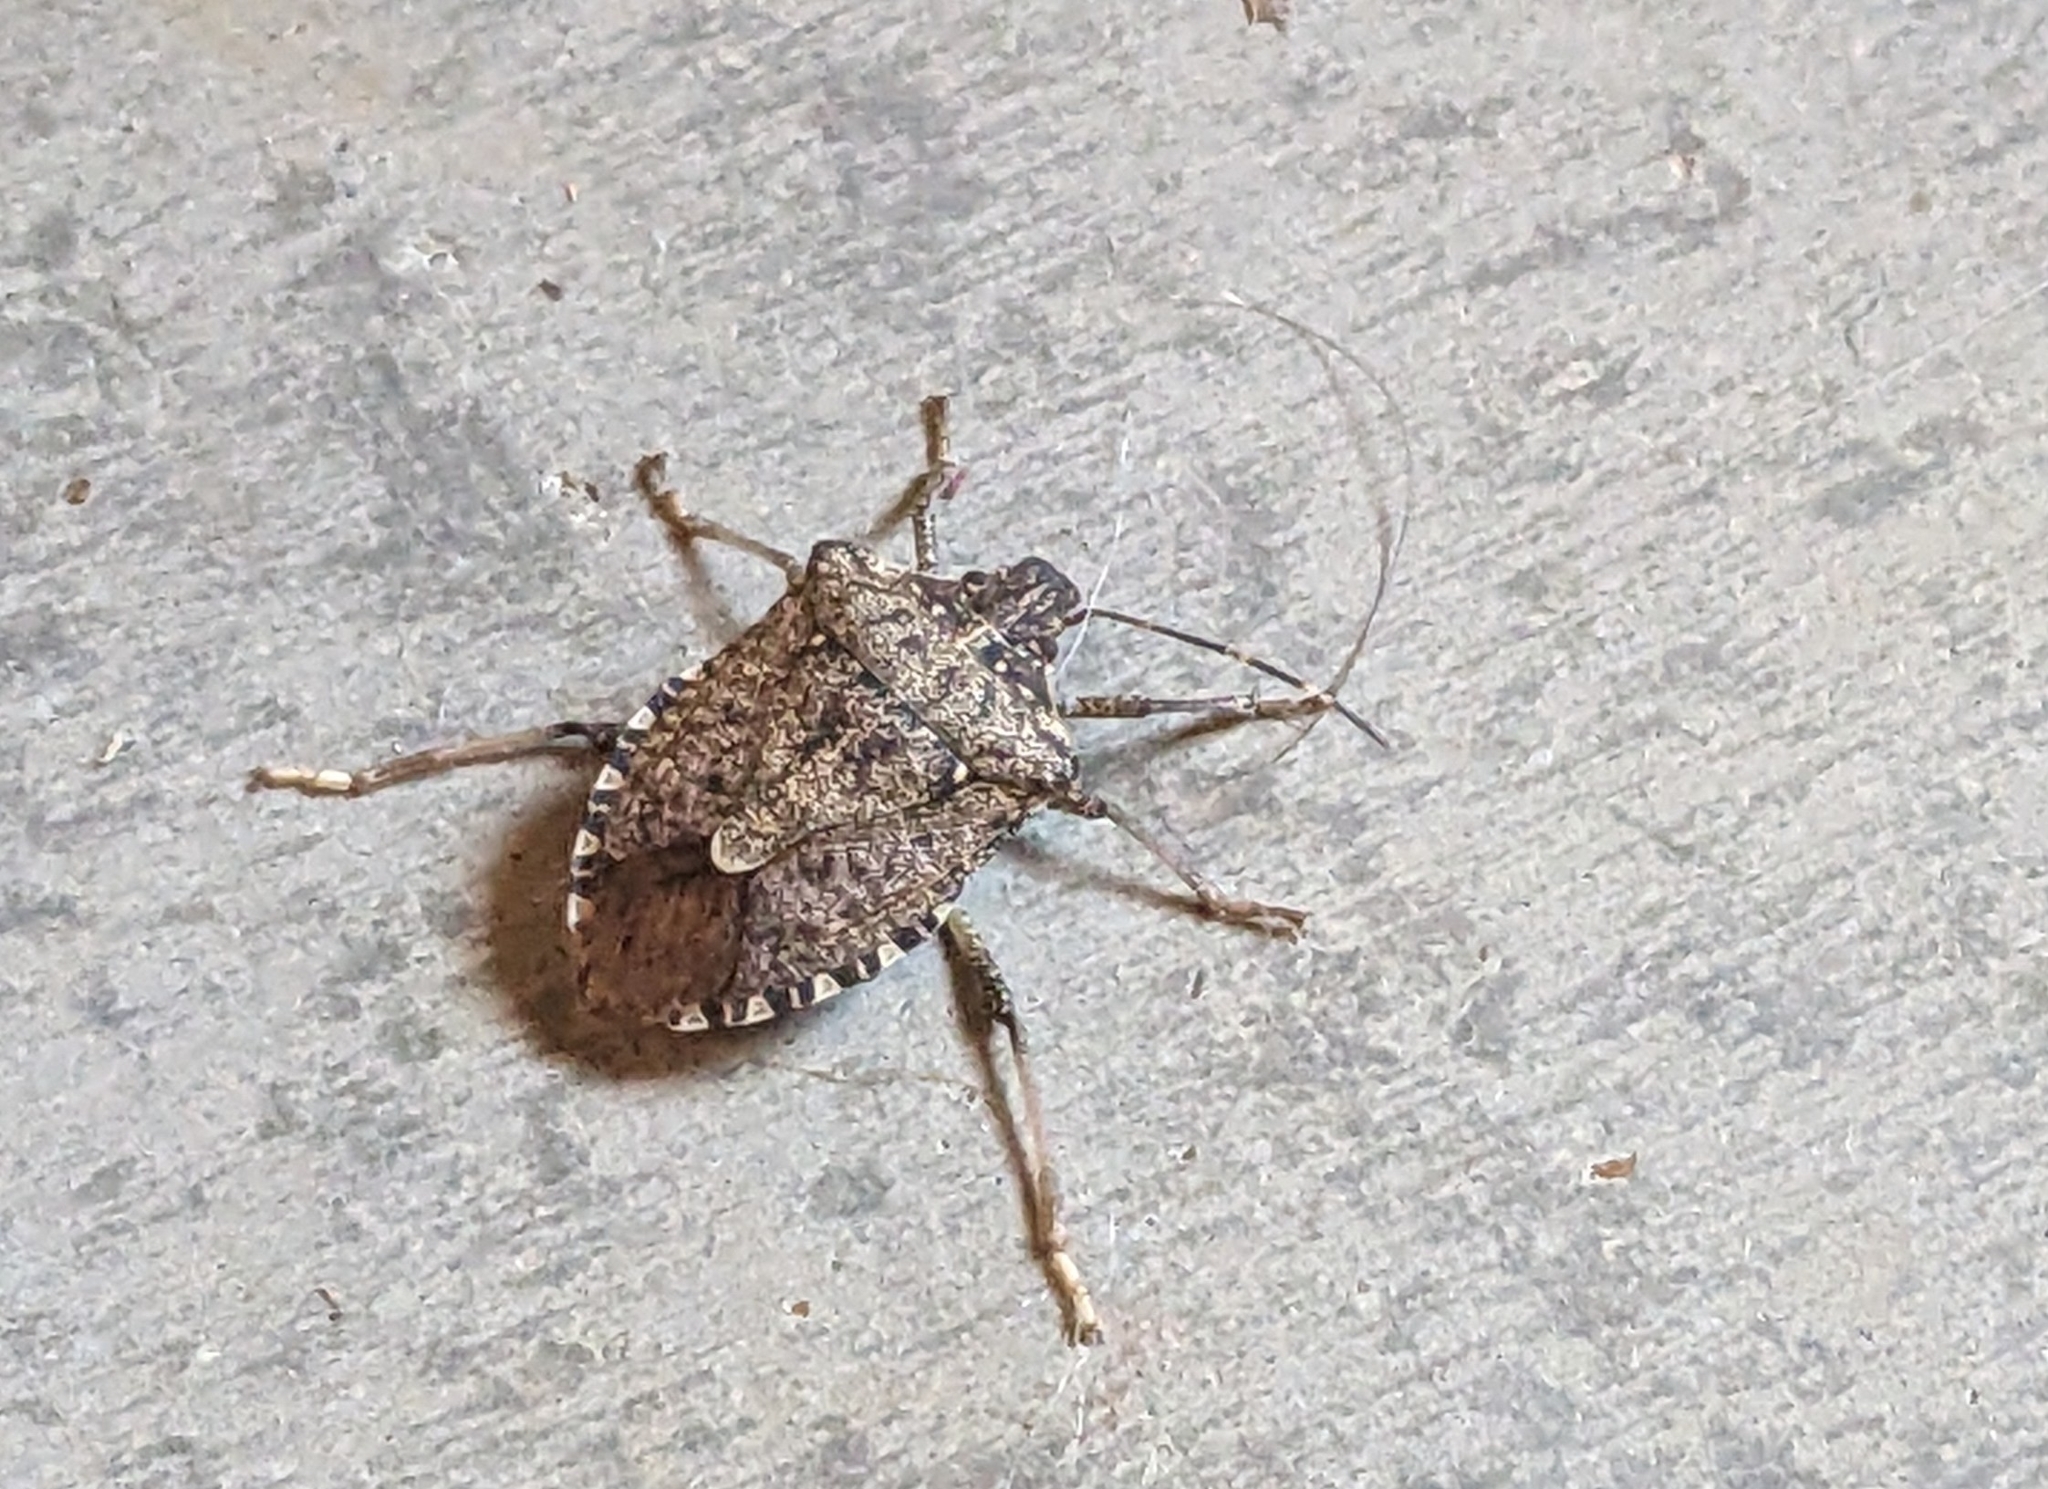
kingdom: Animalia
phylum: Arthropoda
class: Insecta
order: Hemiptera
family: Pentatomidae
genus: Halyomorpha
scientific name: Halyomorpha halys
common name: Brown marmorated stink bug
